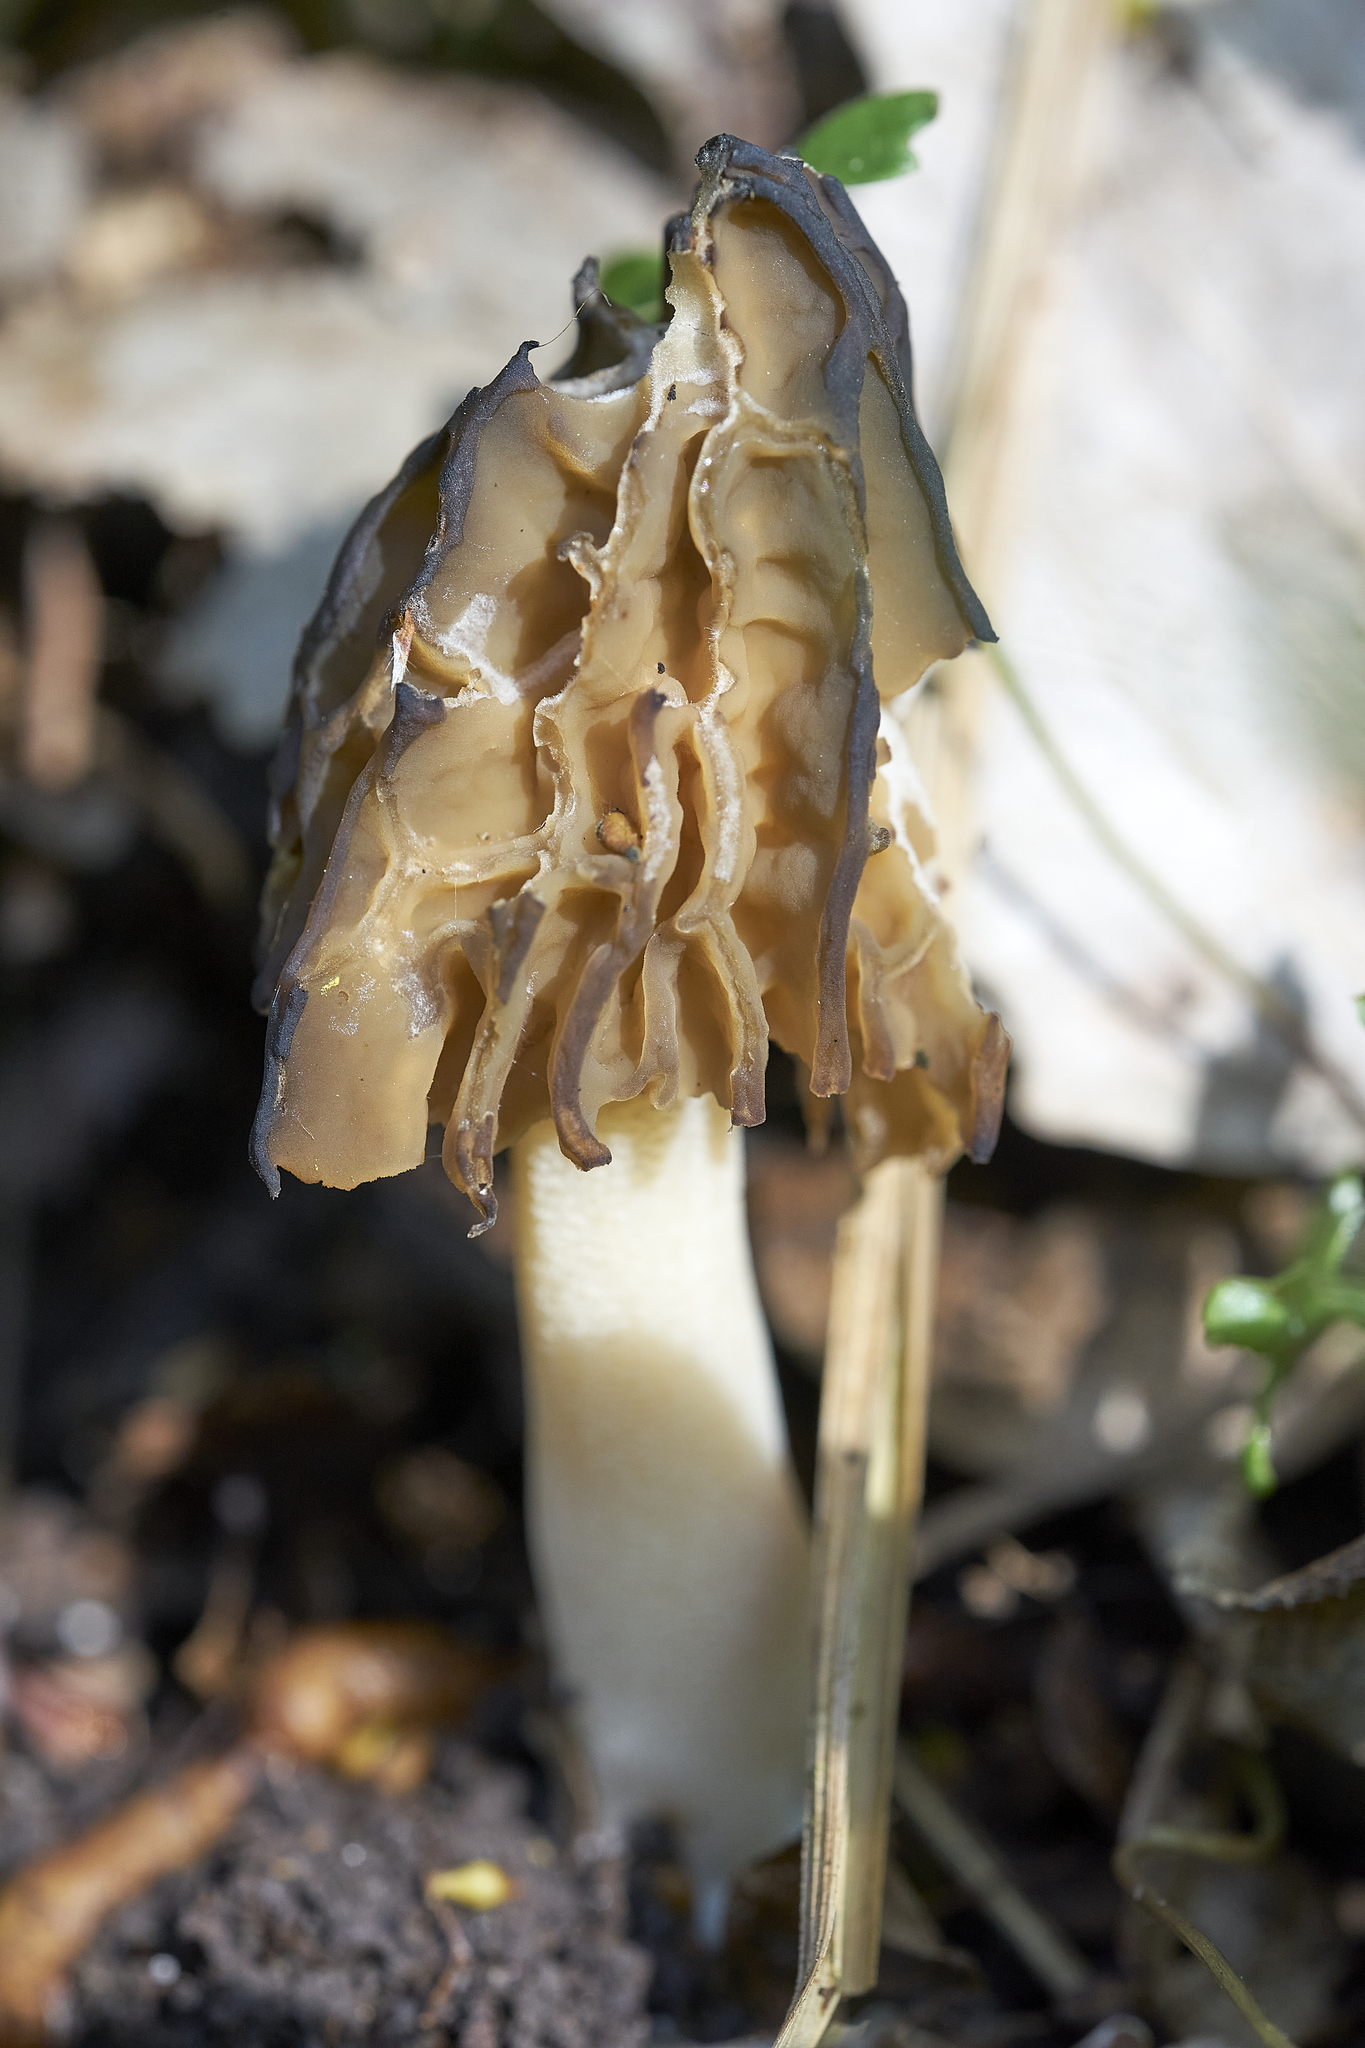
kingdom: Fungi
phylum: Ascomycota
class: Pezizomycetes
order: Pezizales
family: Morchellaceae
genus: Morchella
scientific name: Morchella semilibera
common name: Semifree morel
